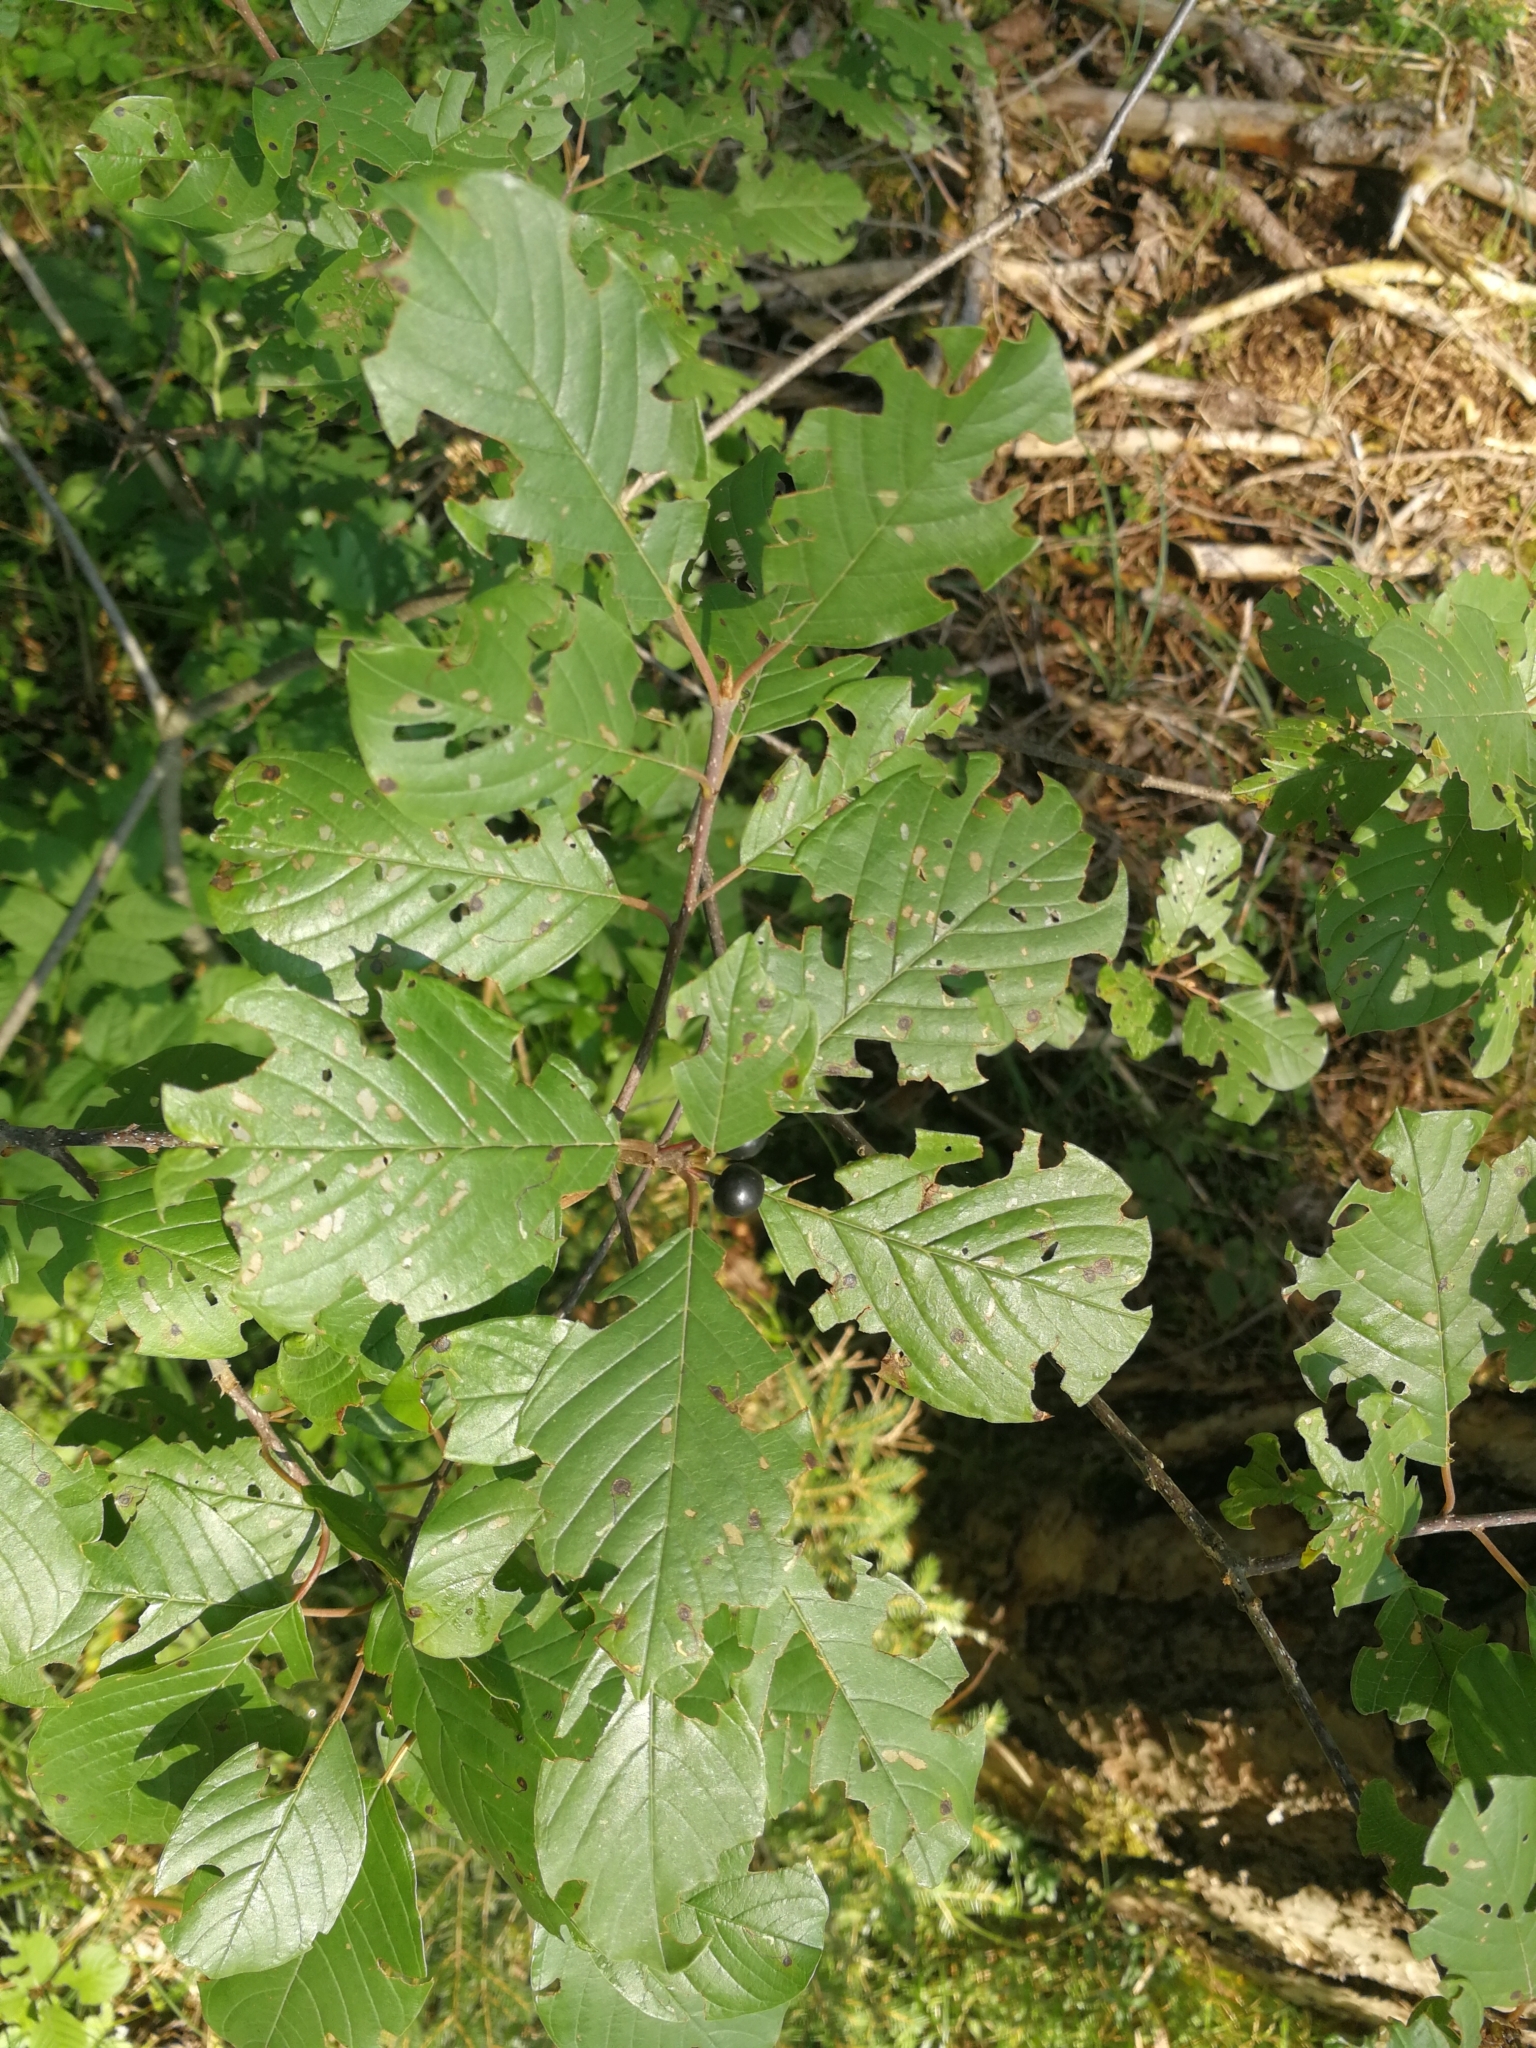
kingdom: Plantae
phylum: Tracheophyta
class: Magnoliopsida
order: Rosales
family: Rhamnaceae
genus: Frangula
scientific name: Frangula alnus
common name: Alder buckthorn
